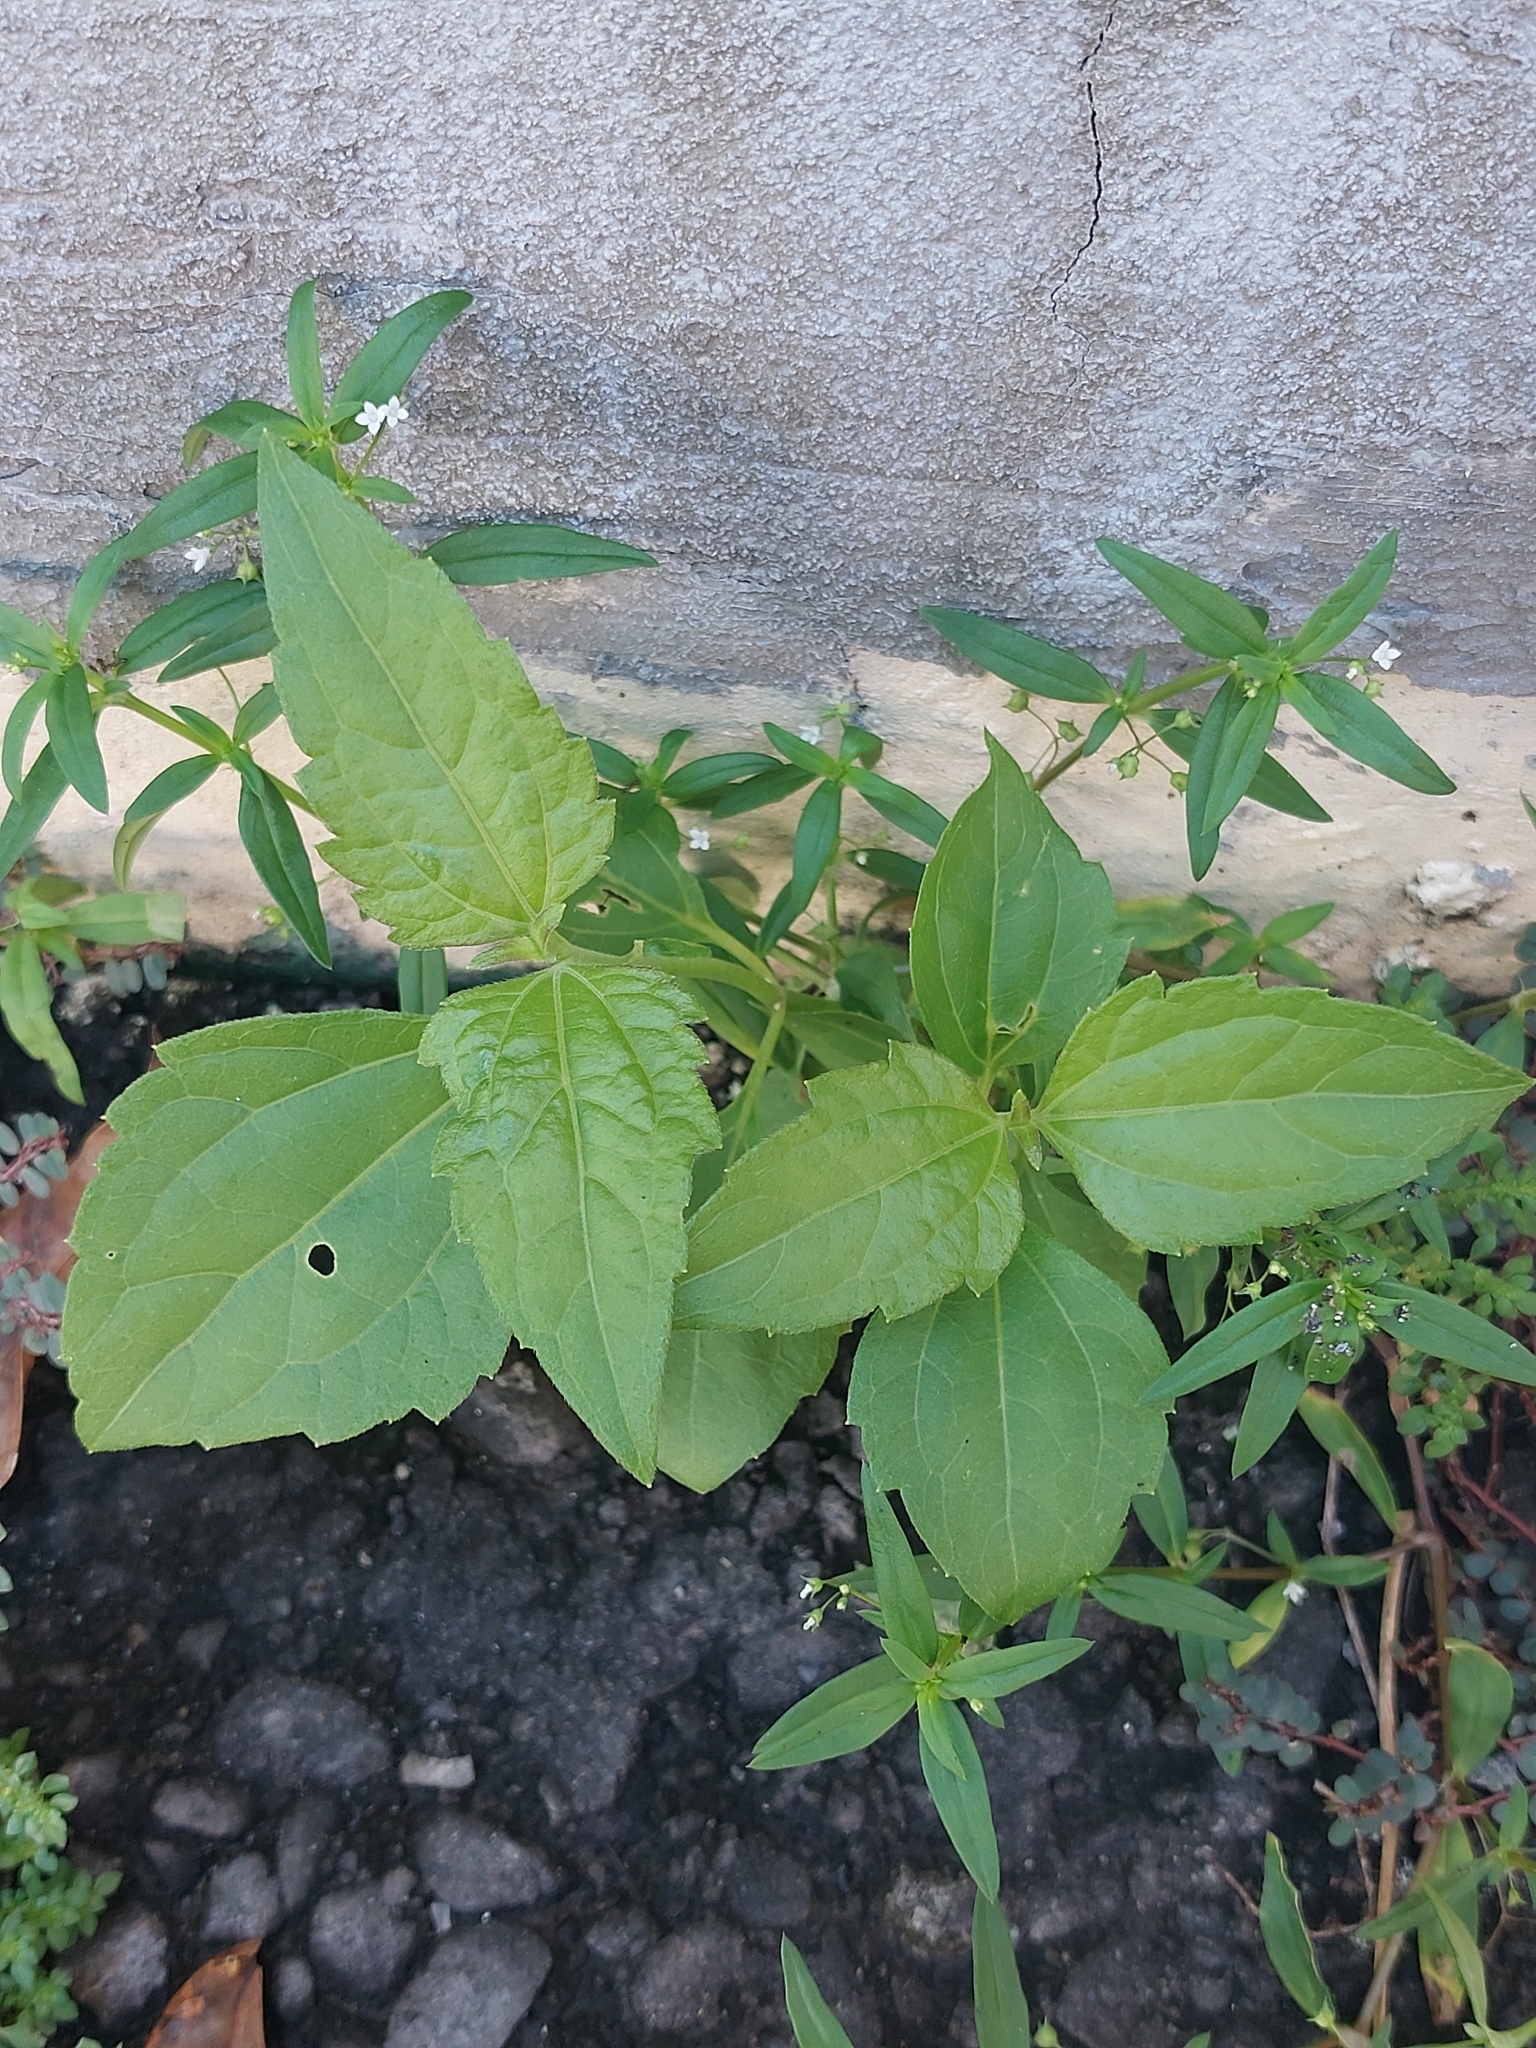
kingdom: Plantae
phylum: Tracheophyta
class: Magnoliopsida
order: Asterales
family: Asteraceae
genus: Chromolaena
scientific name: Chromolaena odorata
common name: Siamweed
